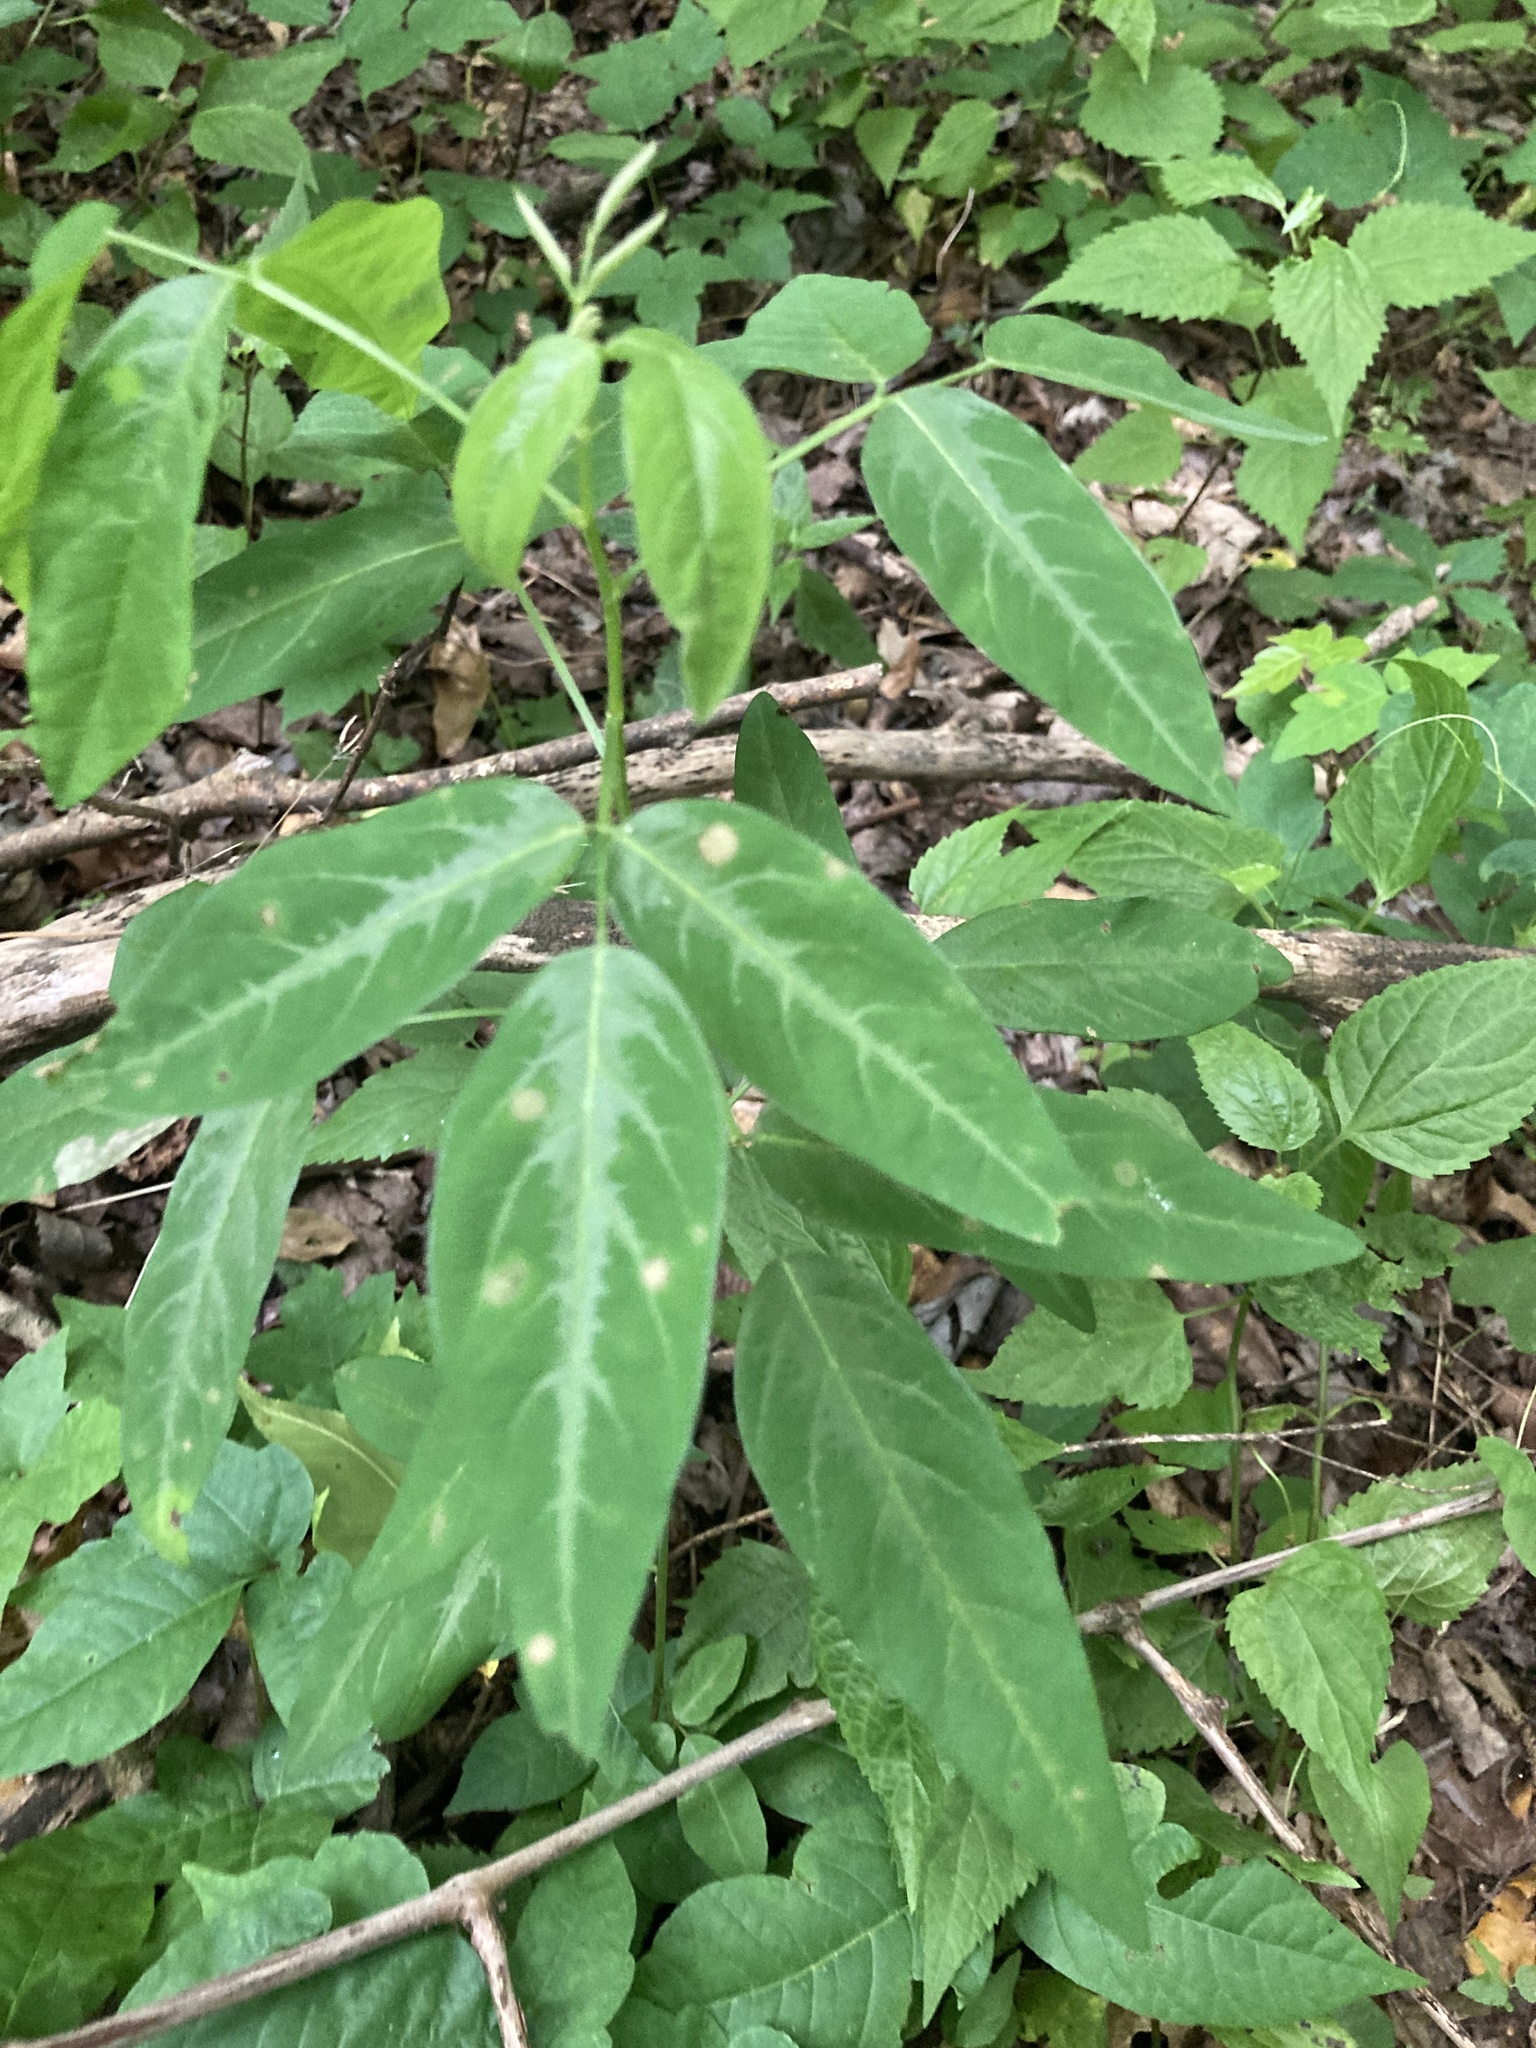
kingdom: Plantae
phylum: Tracheophyta
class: Magnoliopsida
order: Fabales
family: Fabaceae
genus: Desmodium
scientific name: Desmodium paniculatum
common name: Panicled tick-clover
